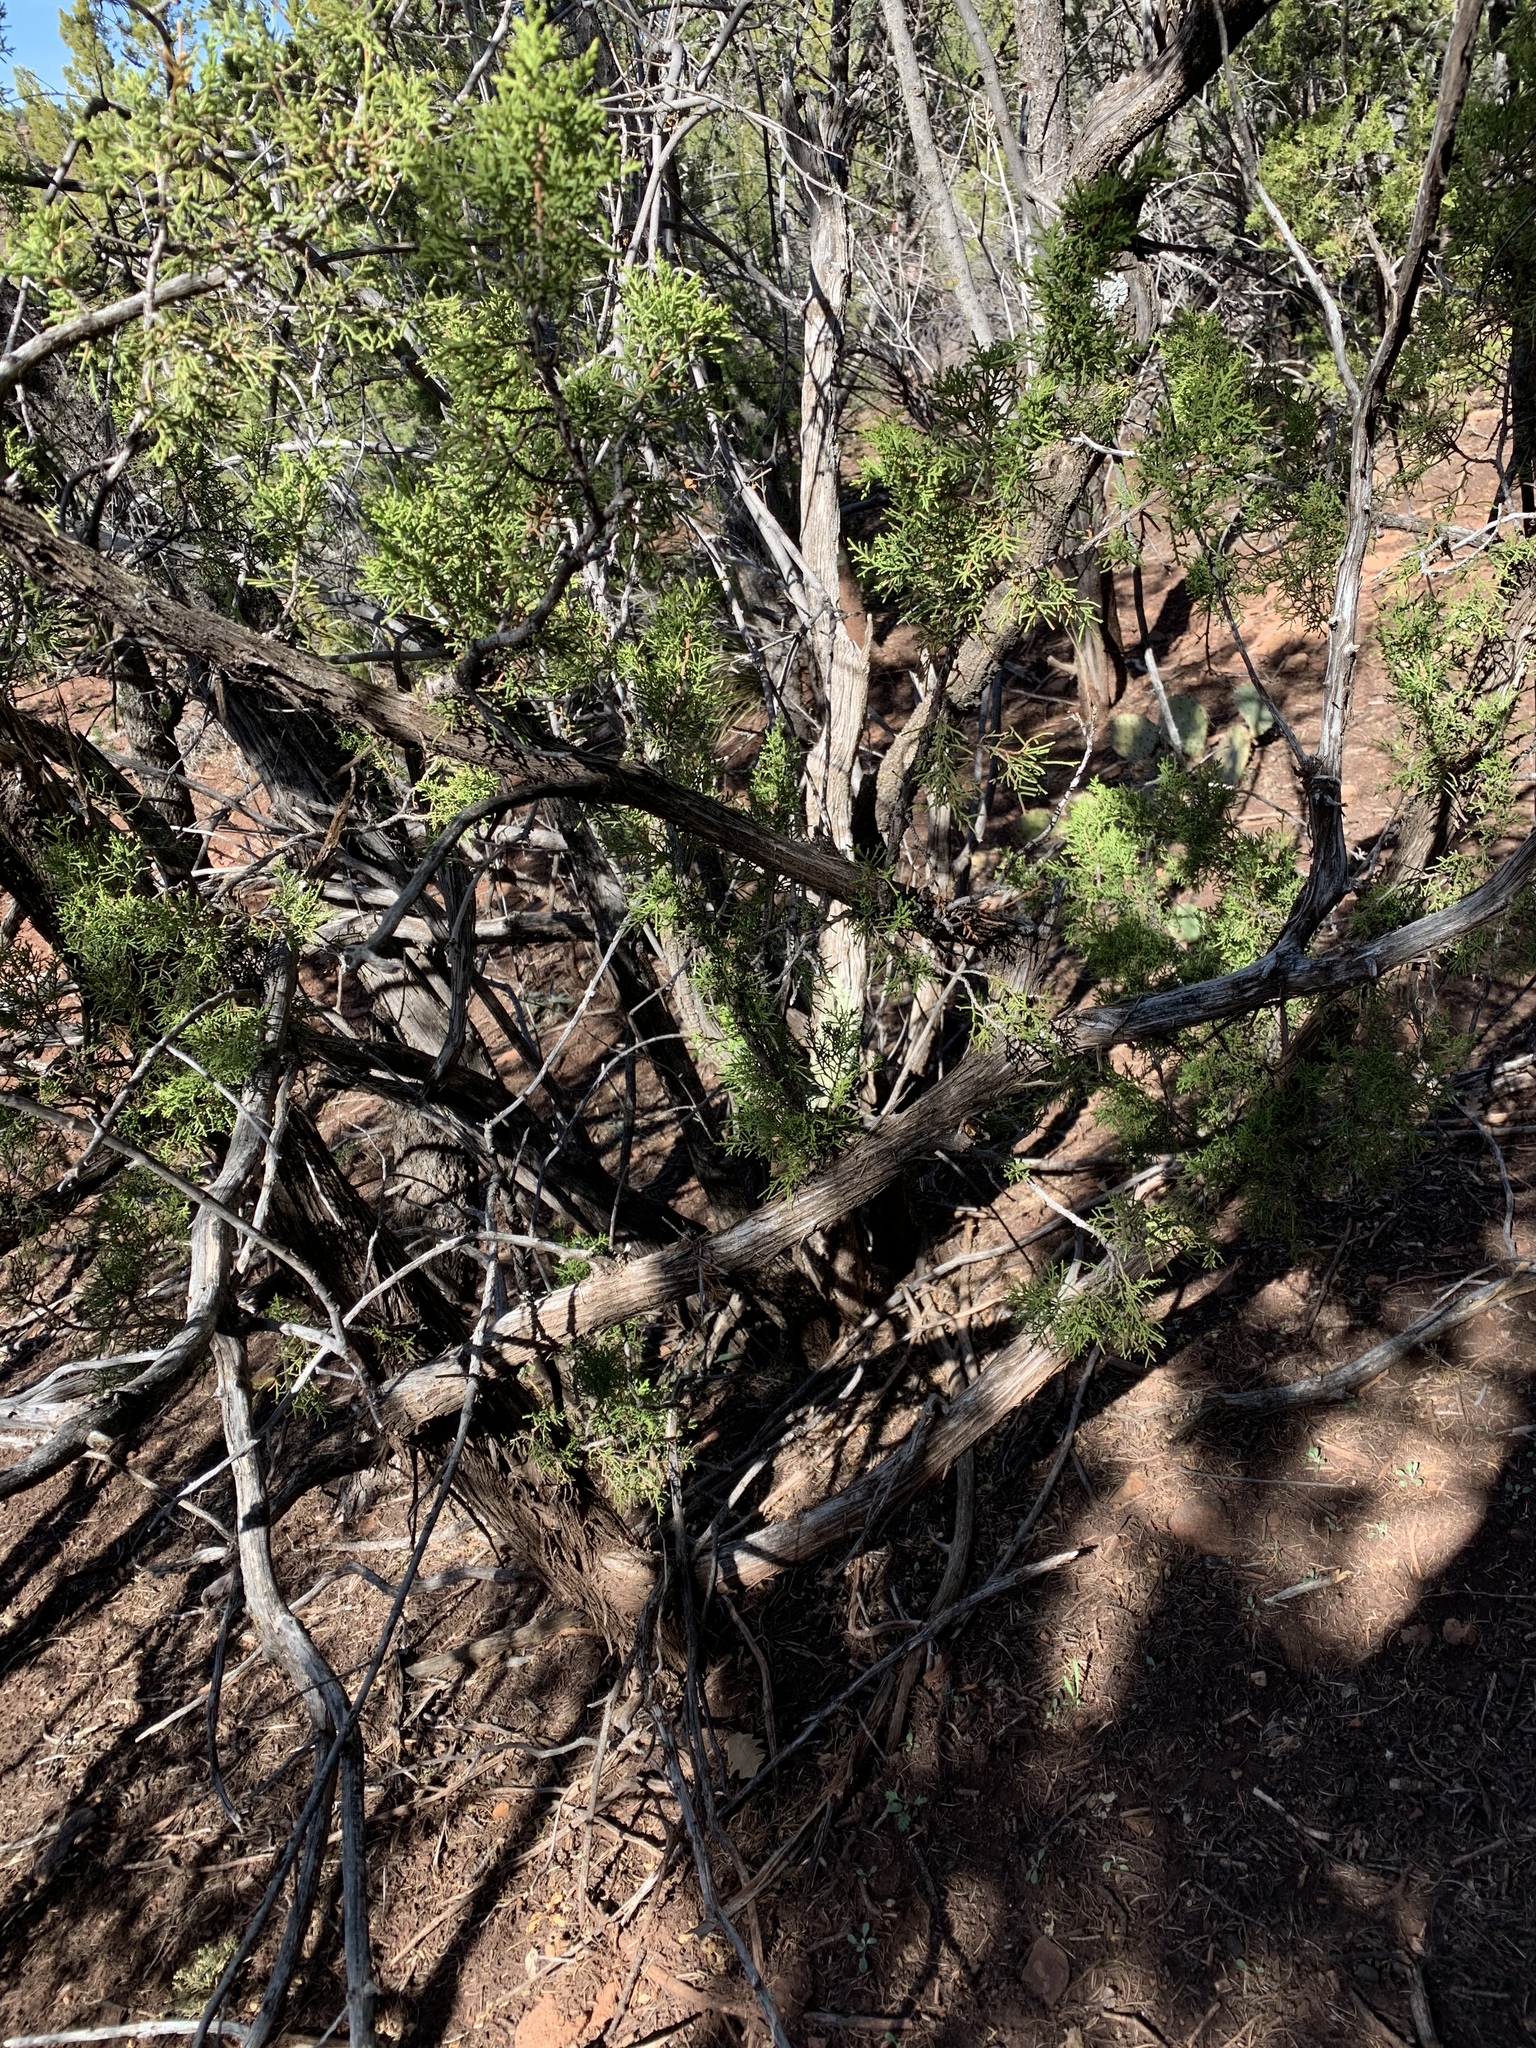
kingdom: Plantae
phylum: Tracheophyta
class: Pinopsida
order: Pinales
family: Cupressaceae
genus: Juniperus
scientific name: Juniperus monosperma
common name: One-seed juniper
